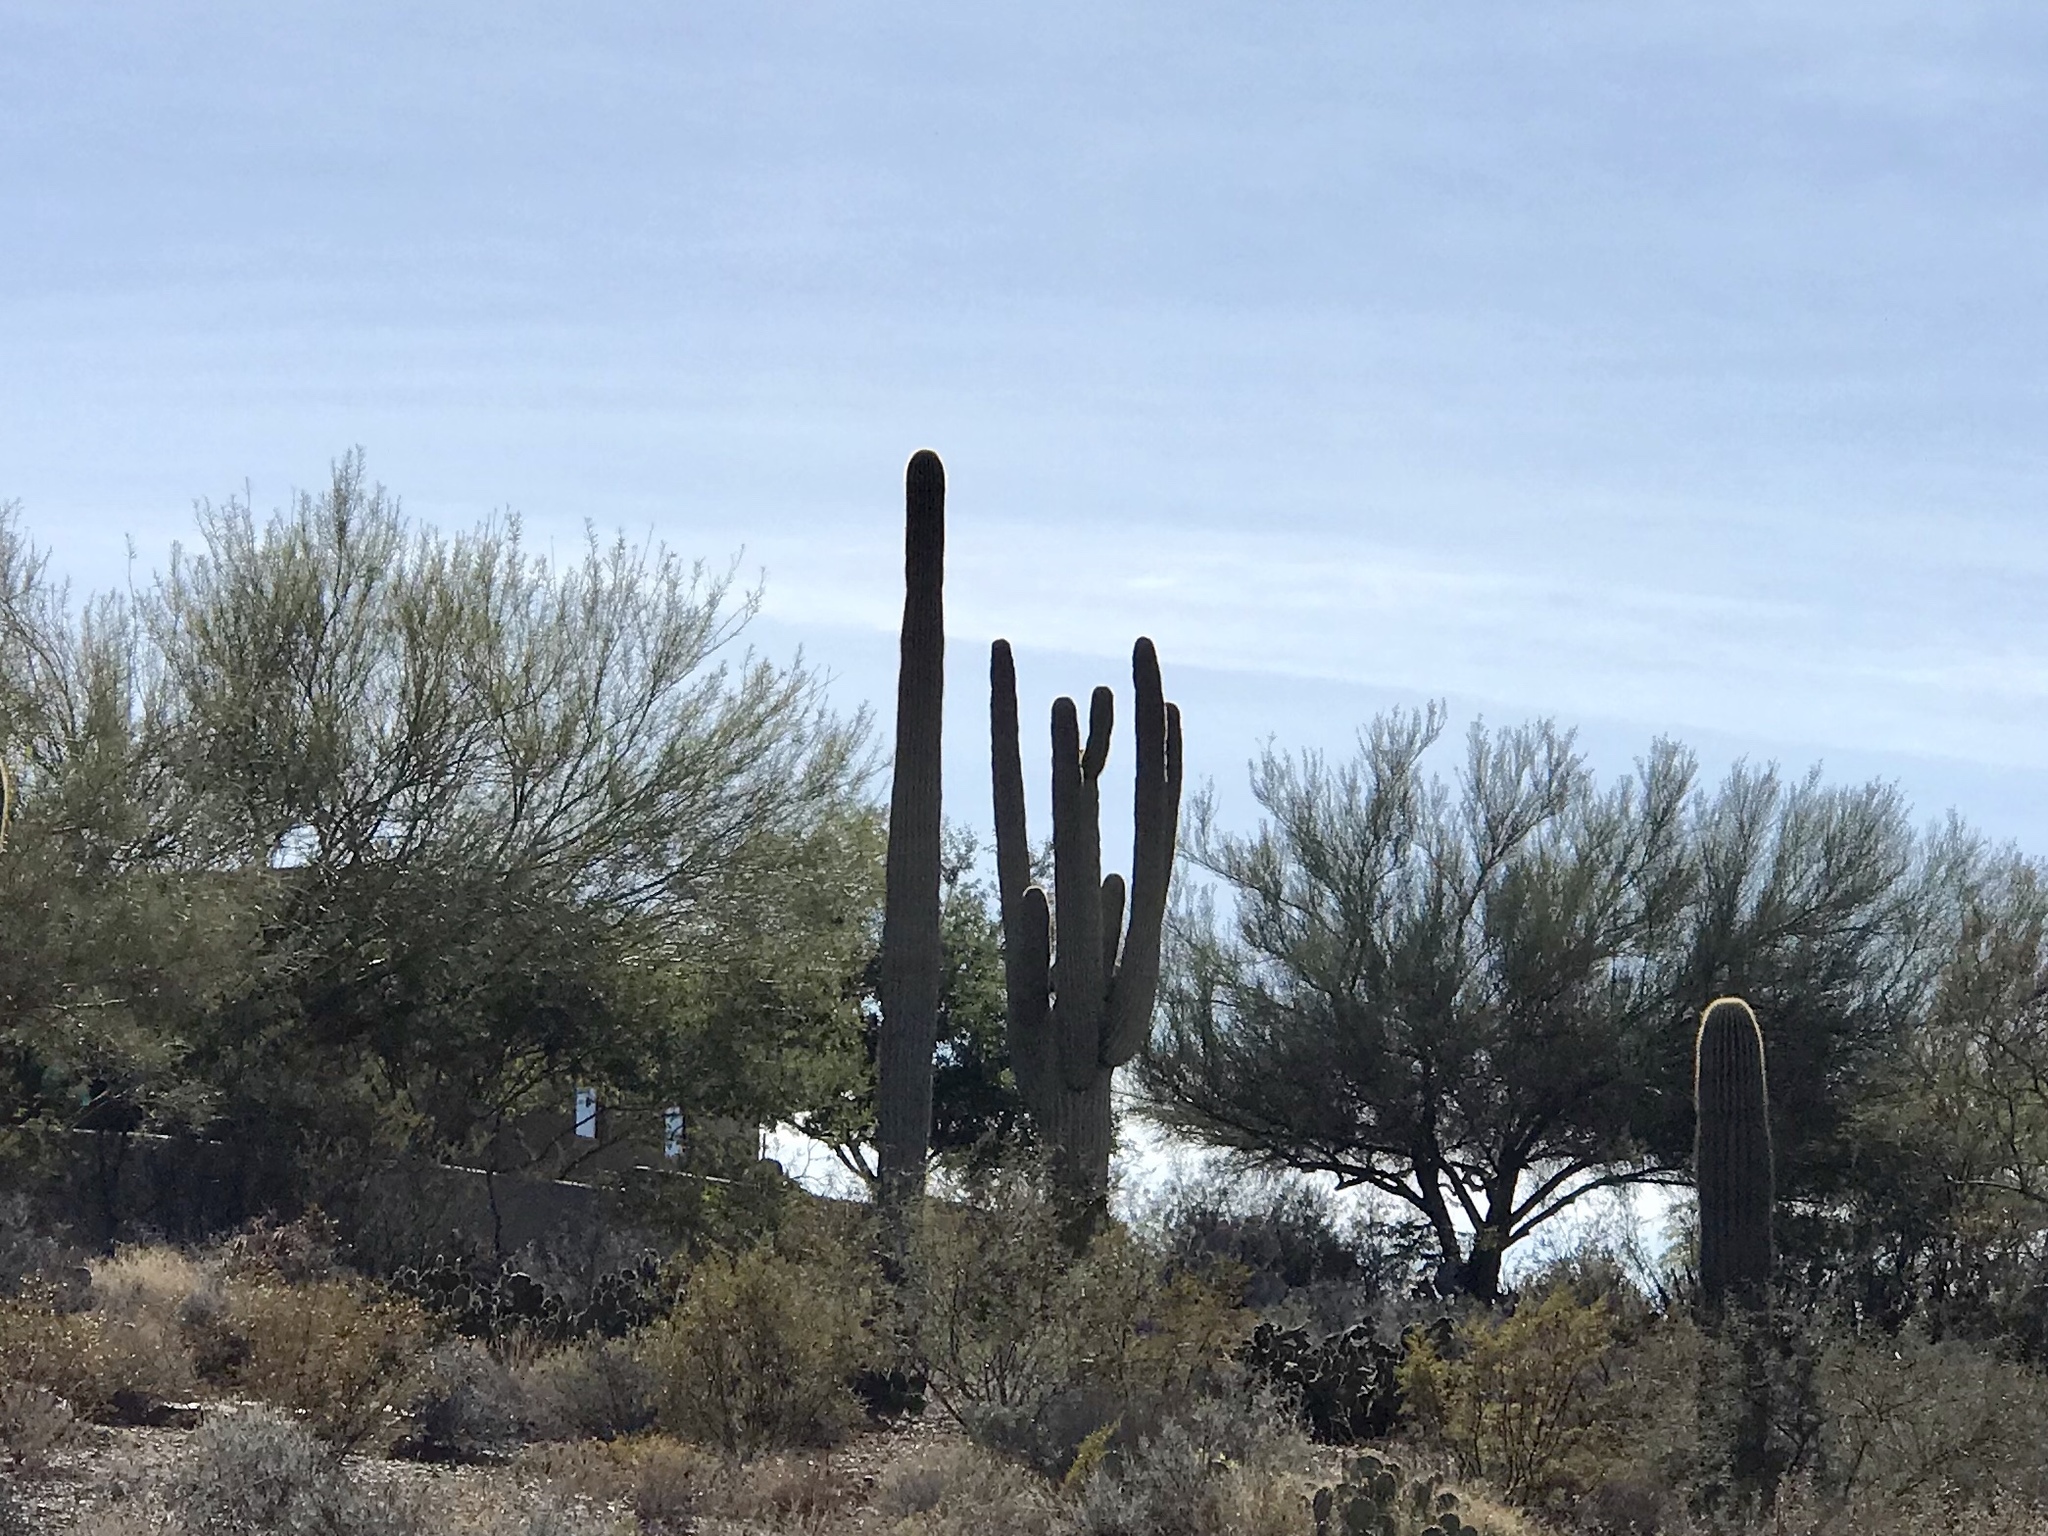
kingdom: Plantae
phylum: Tracheophyta
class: Magnoliopsida
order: Caryophyllales
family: Cactaceae
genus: Carnegiea
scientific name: Carnegiea gigantea
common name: Saguaro
